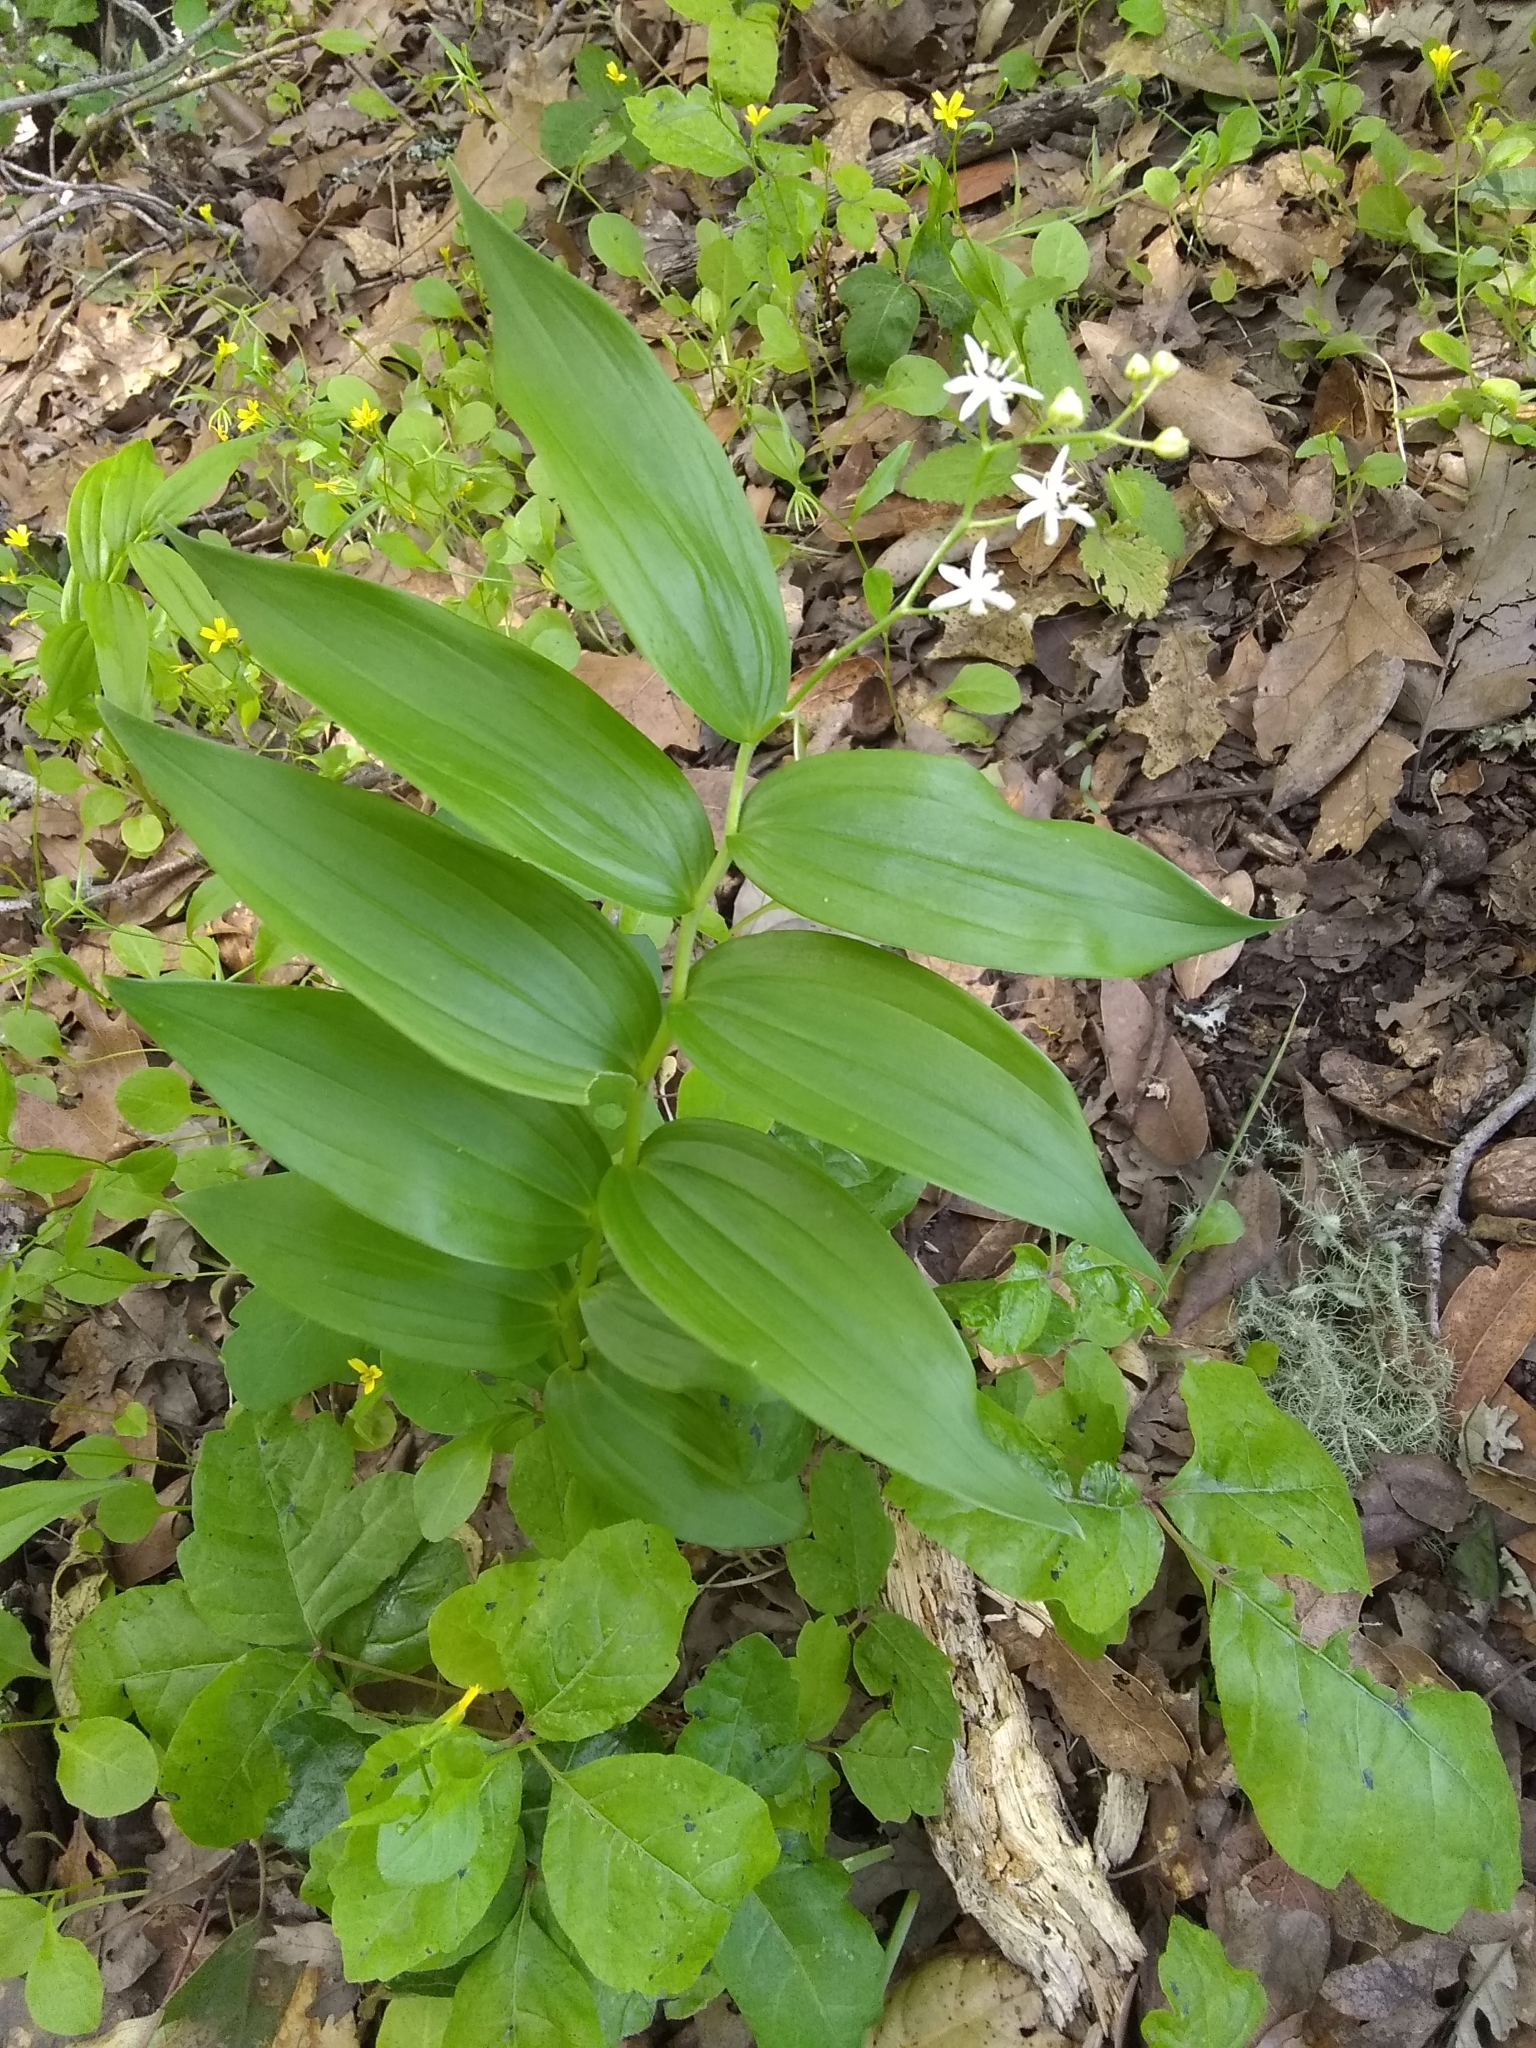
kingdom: Plantae
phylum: Tracheophyta
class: Liliopsida
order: Asparagales
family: Asparagaceae
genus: Maianthemum
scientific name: Maianthemum stellatum
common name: Little false solomon's seal
